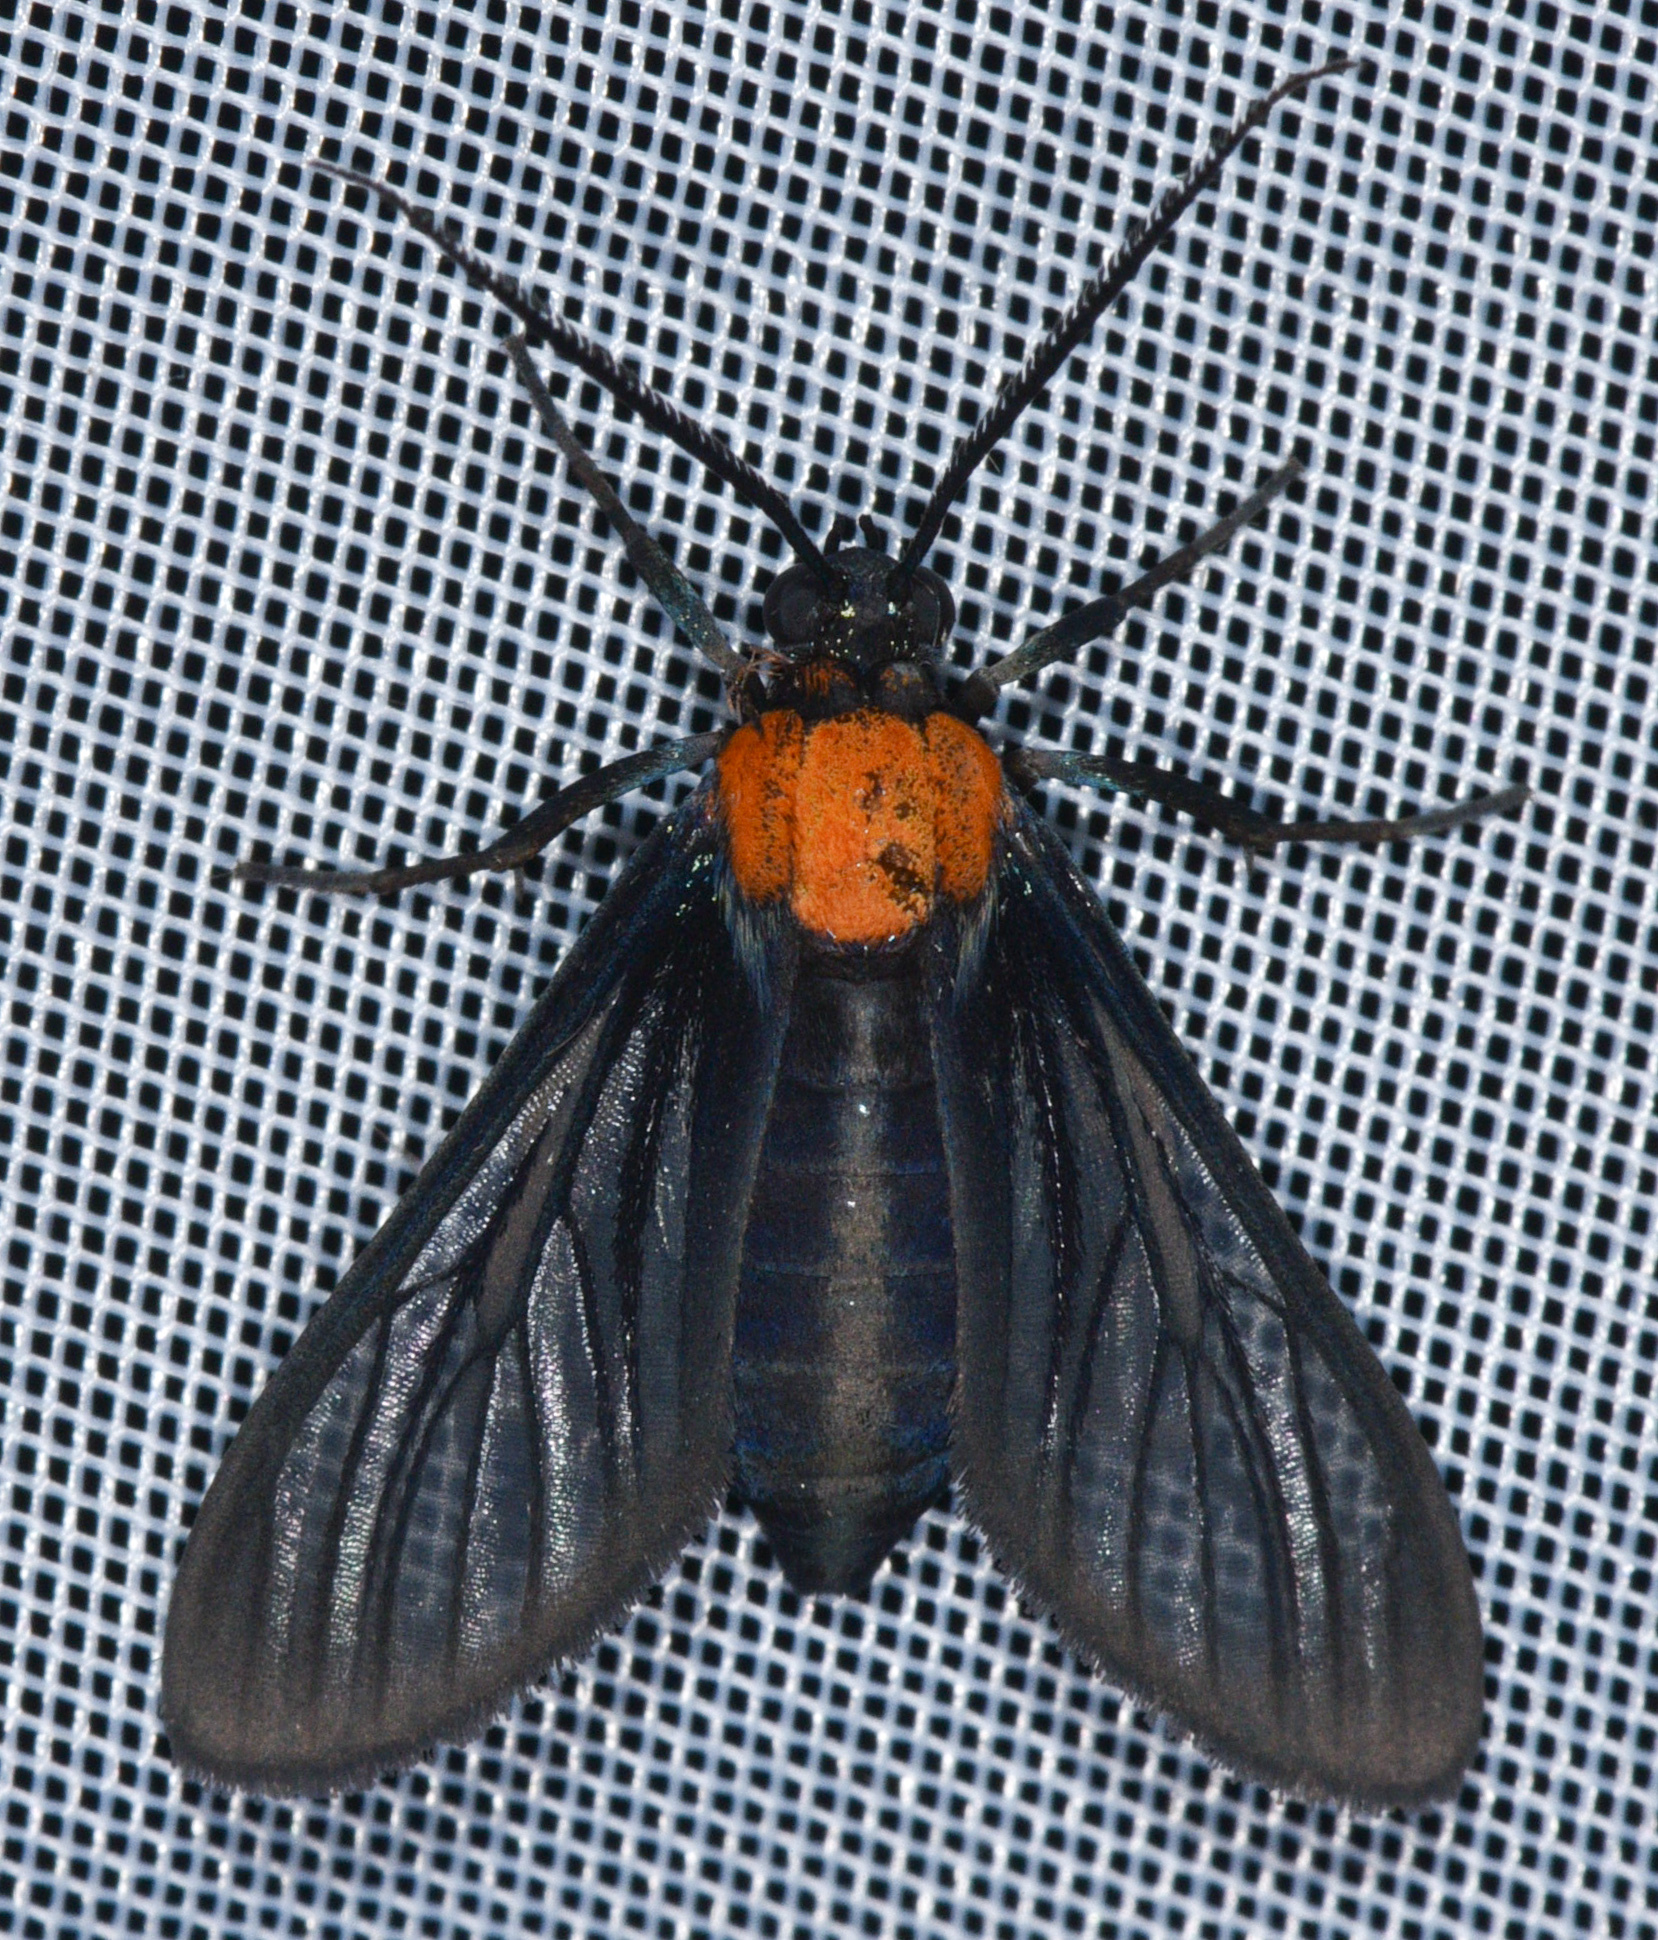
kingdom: Animalia
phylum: Arthropoda
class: Insecta
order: Lepidoptera
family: Erebidae
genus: Saurita
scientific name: Saurita temenus
